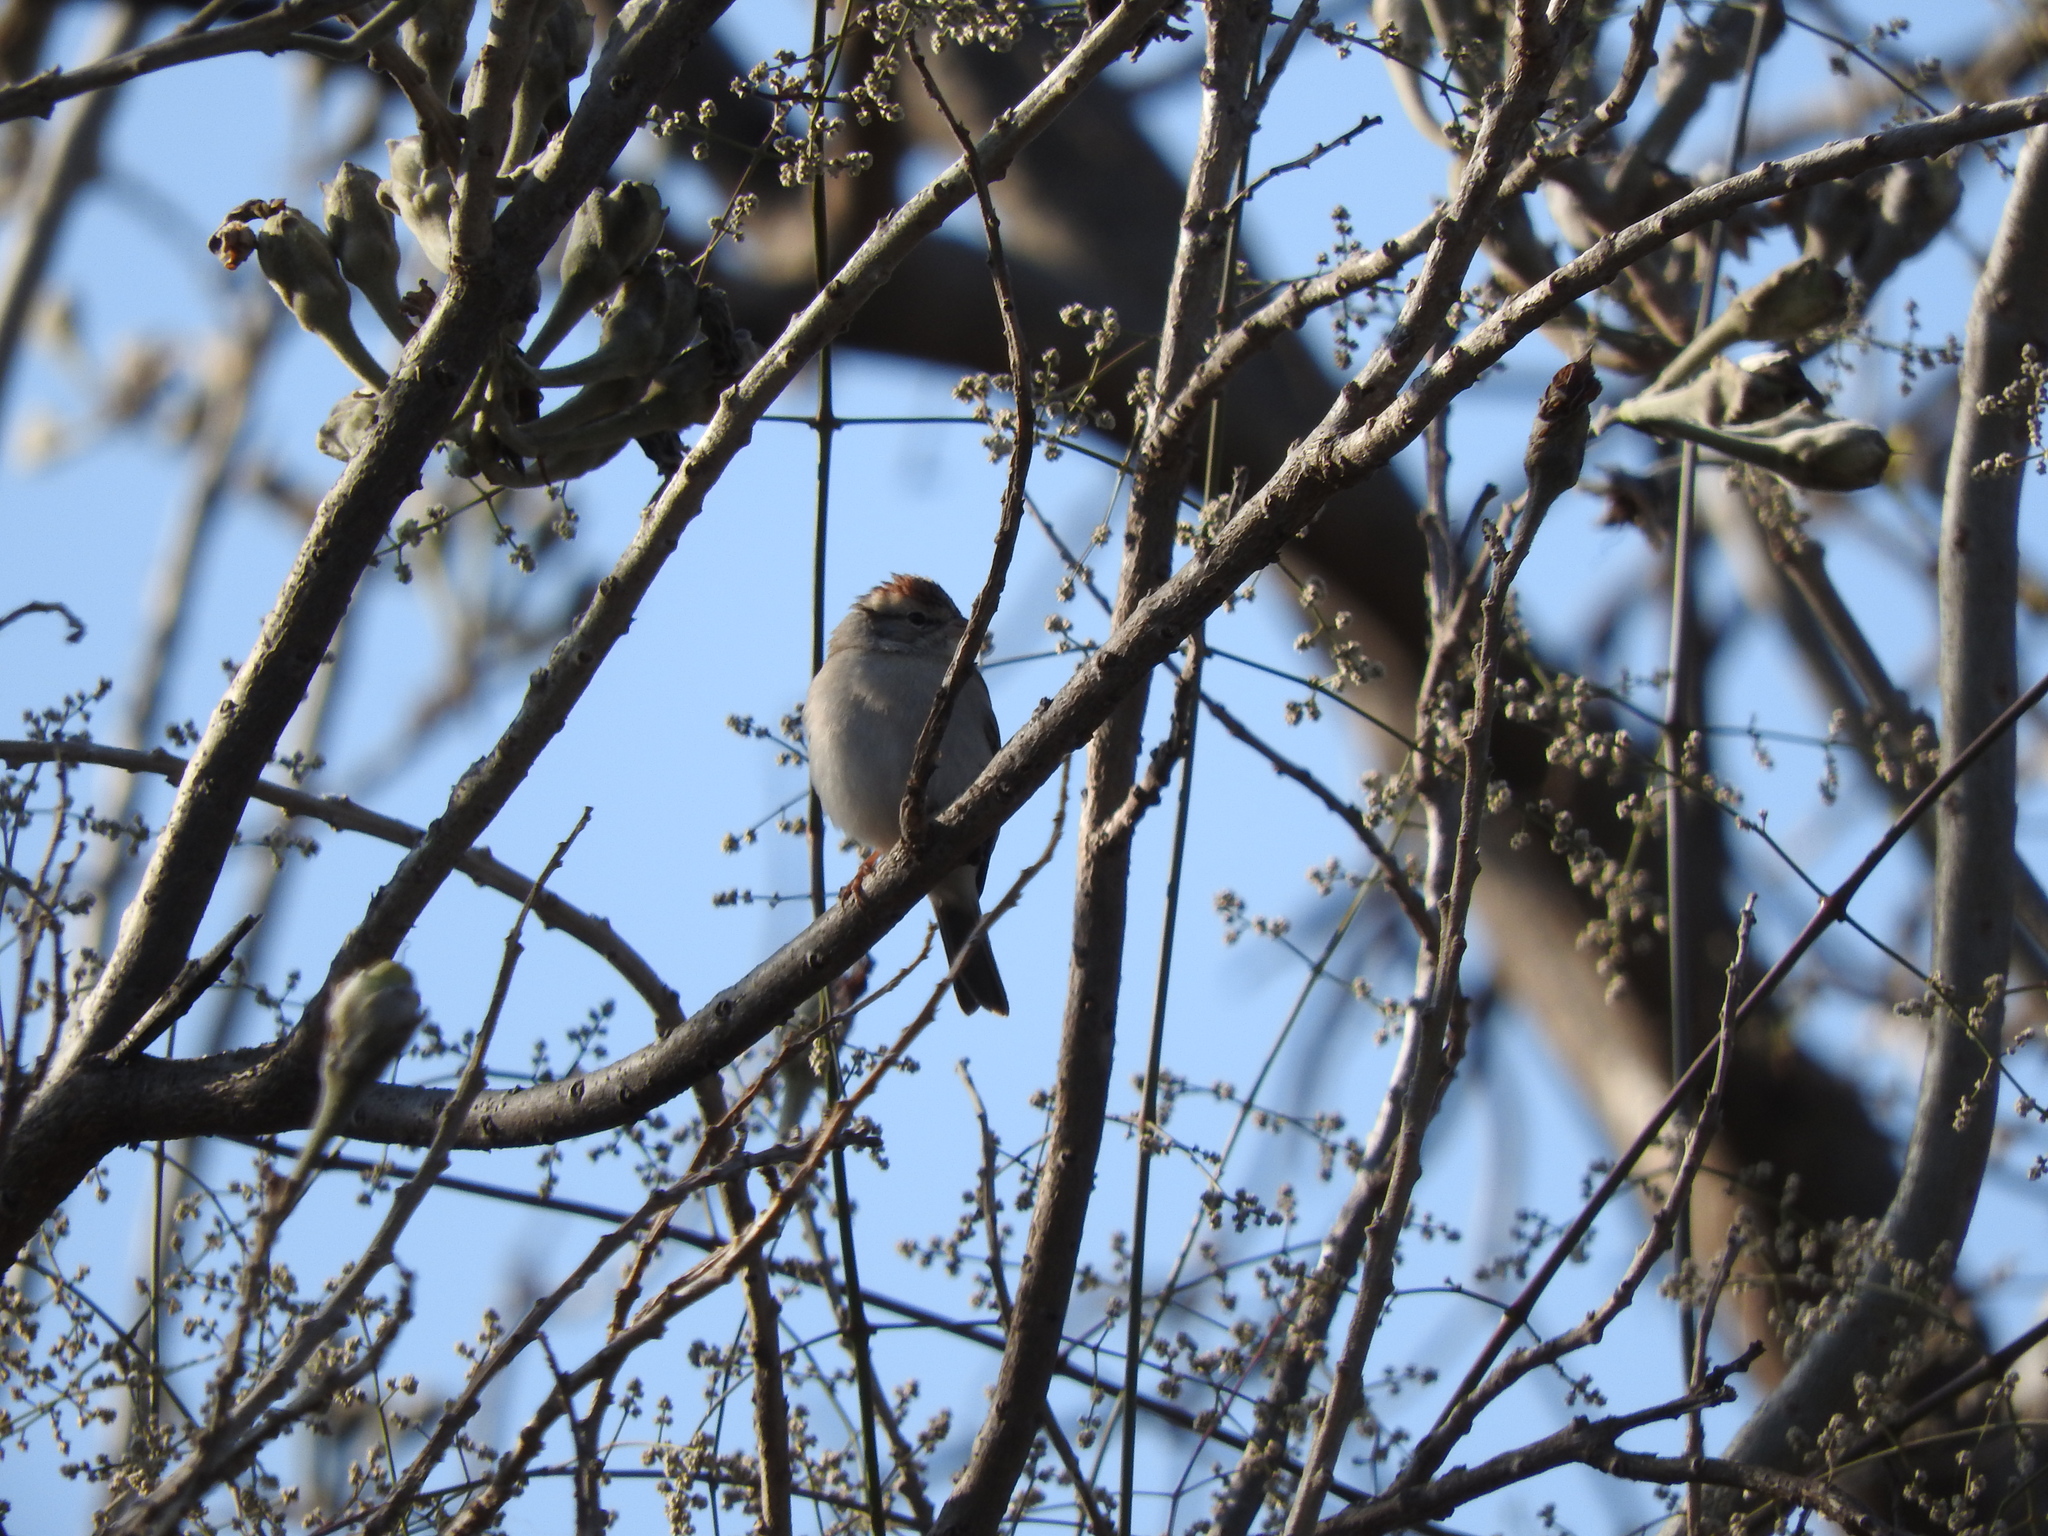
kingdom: Animalia
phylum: Chordata
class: Aves
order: Passeriformes
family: Passerellidae
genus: Spizella
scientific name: Spizella passerina
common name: Chipping sparrow
